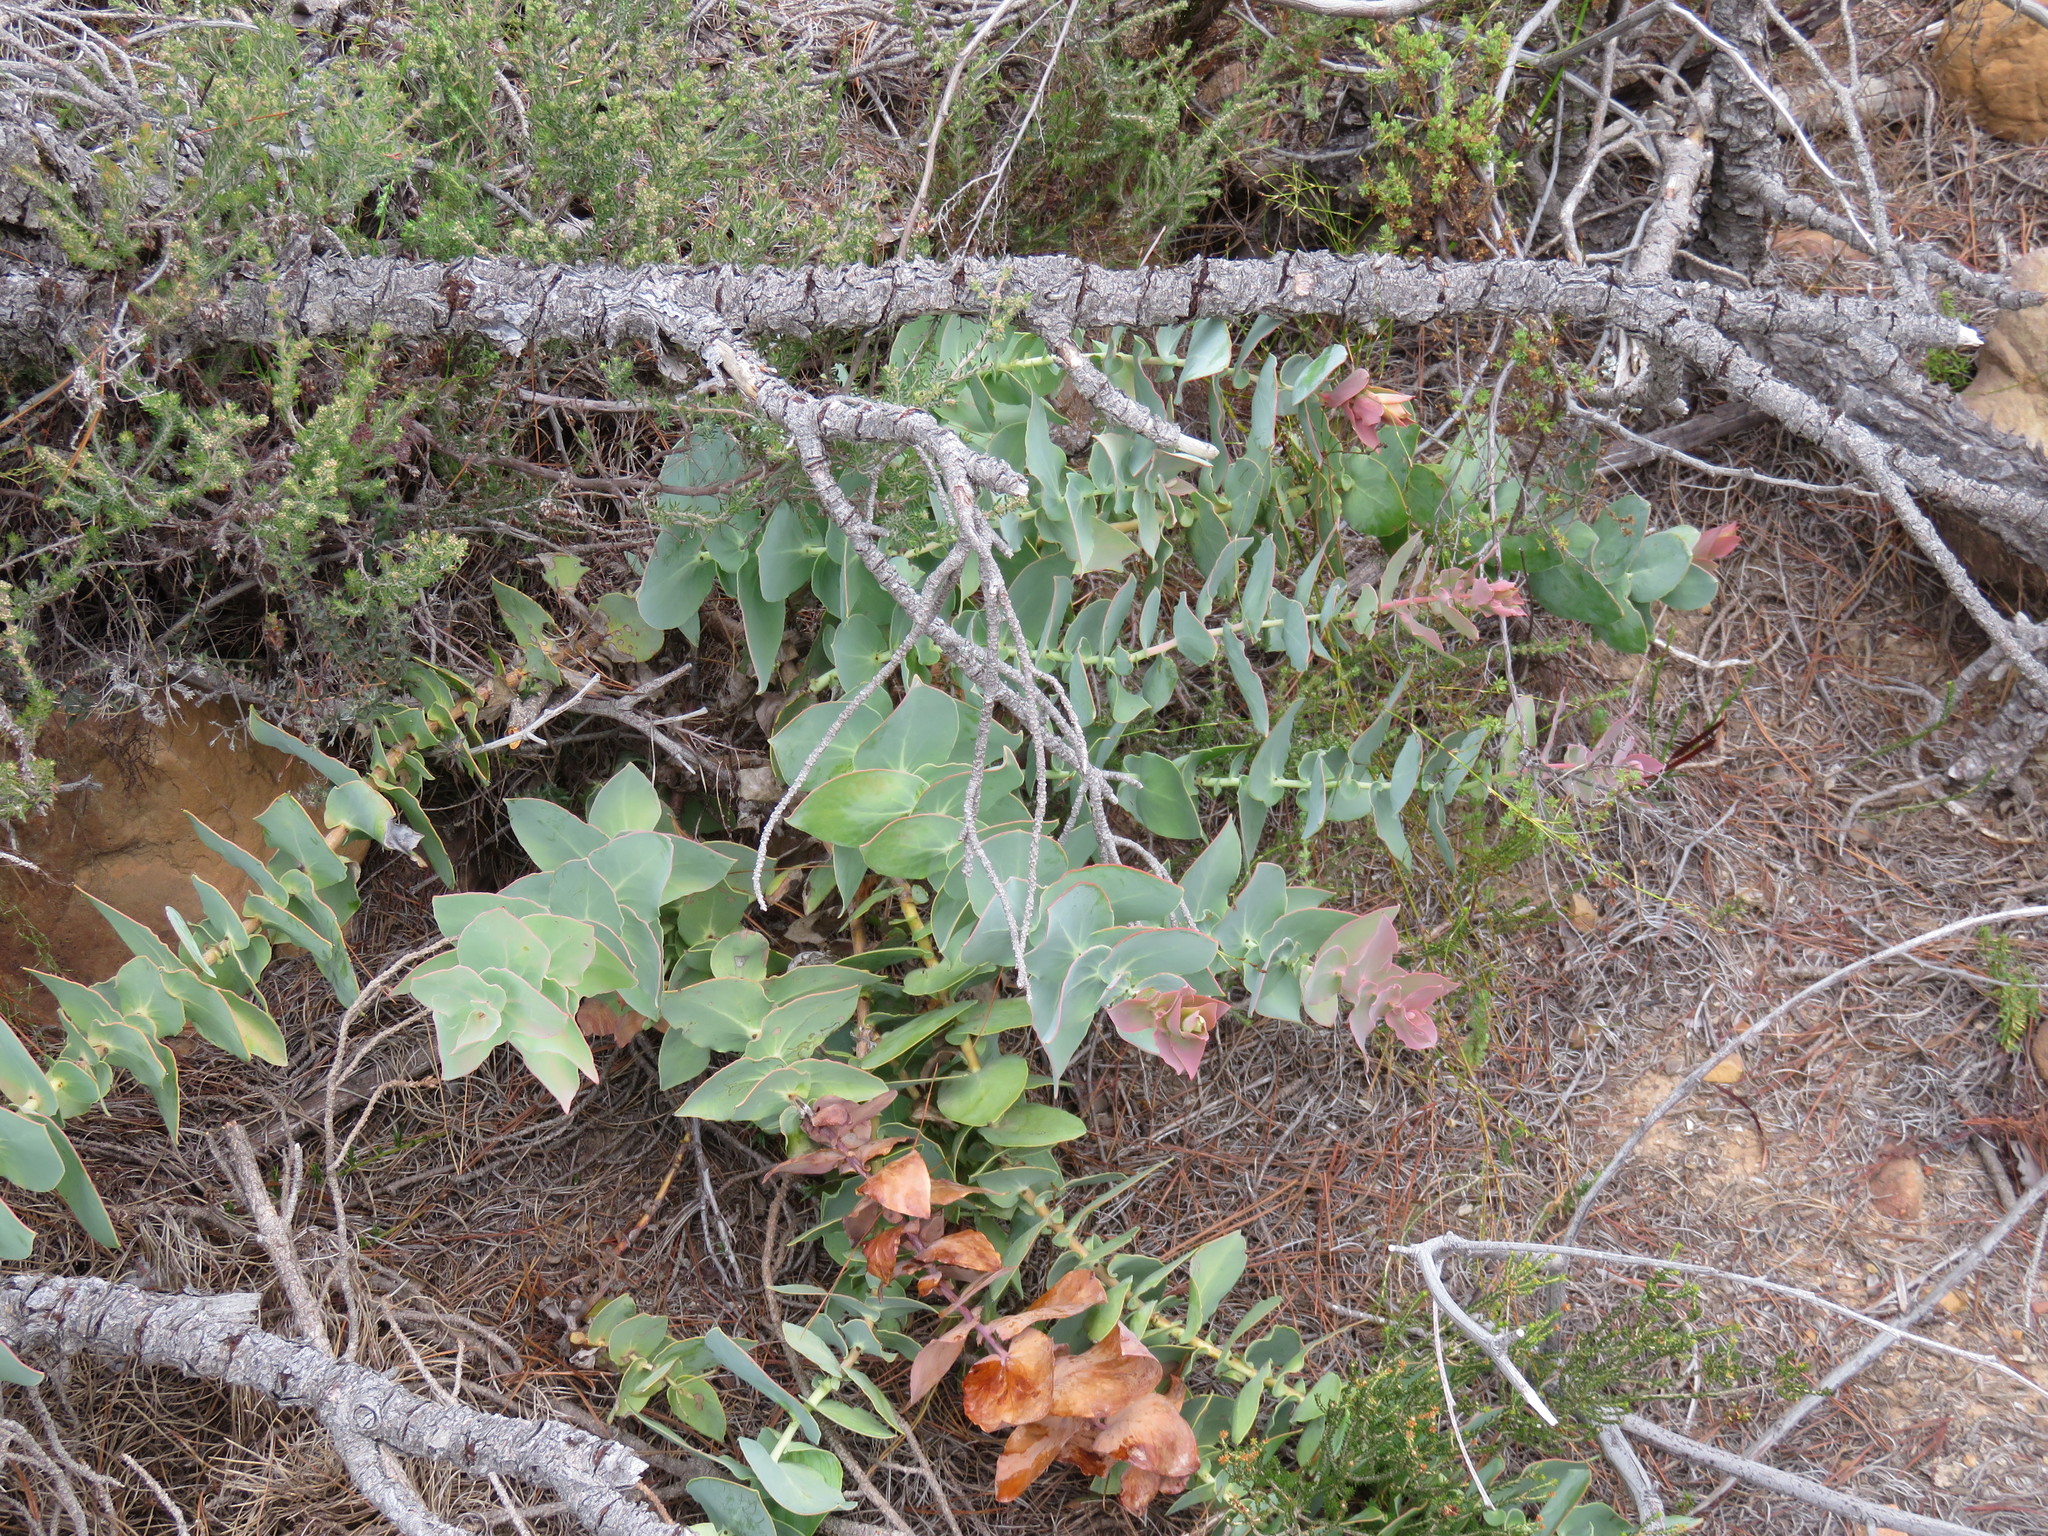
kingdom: Plantae
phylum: Tracheophyta
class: Magnoliopsida
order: Proteales
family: Proteaceae
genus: Protea
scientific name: Protea amplexicaulis
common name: Clasping-leaf sugarbush
